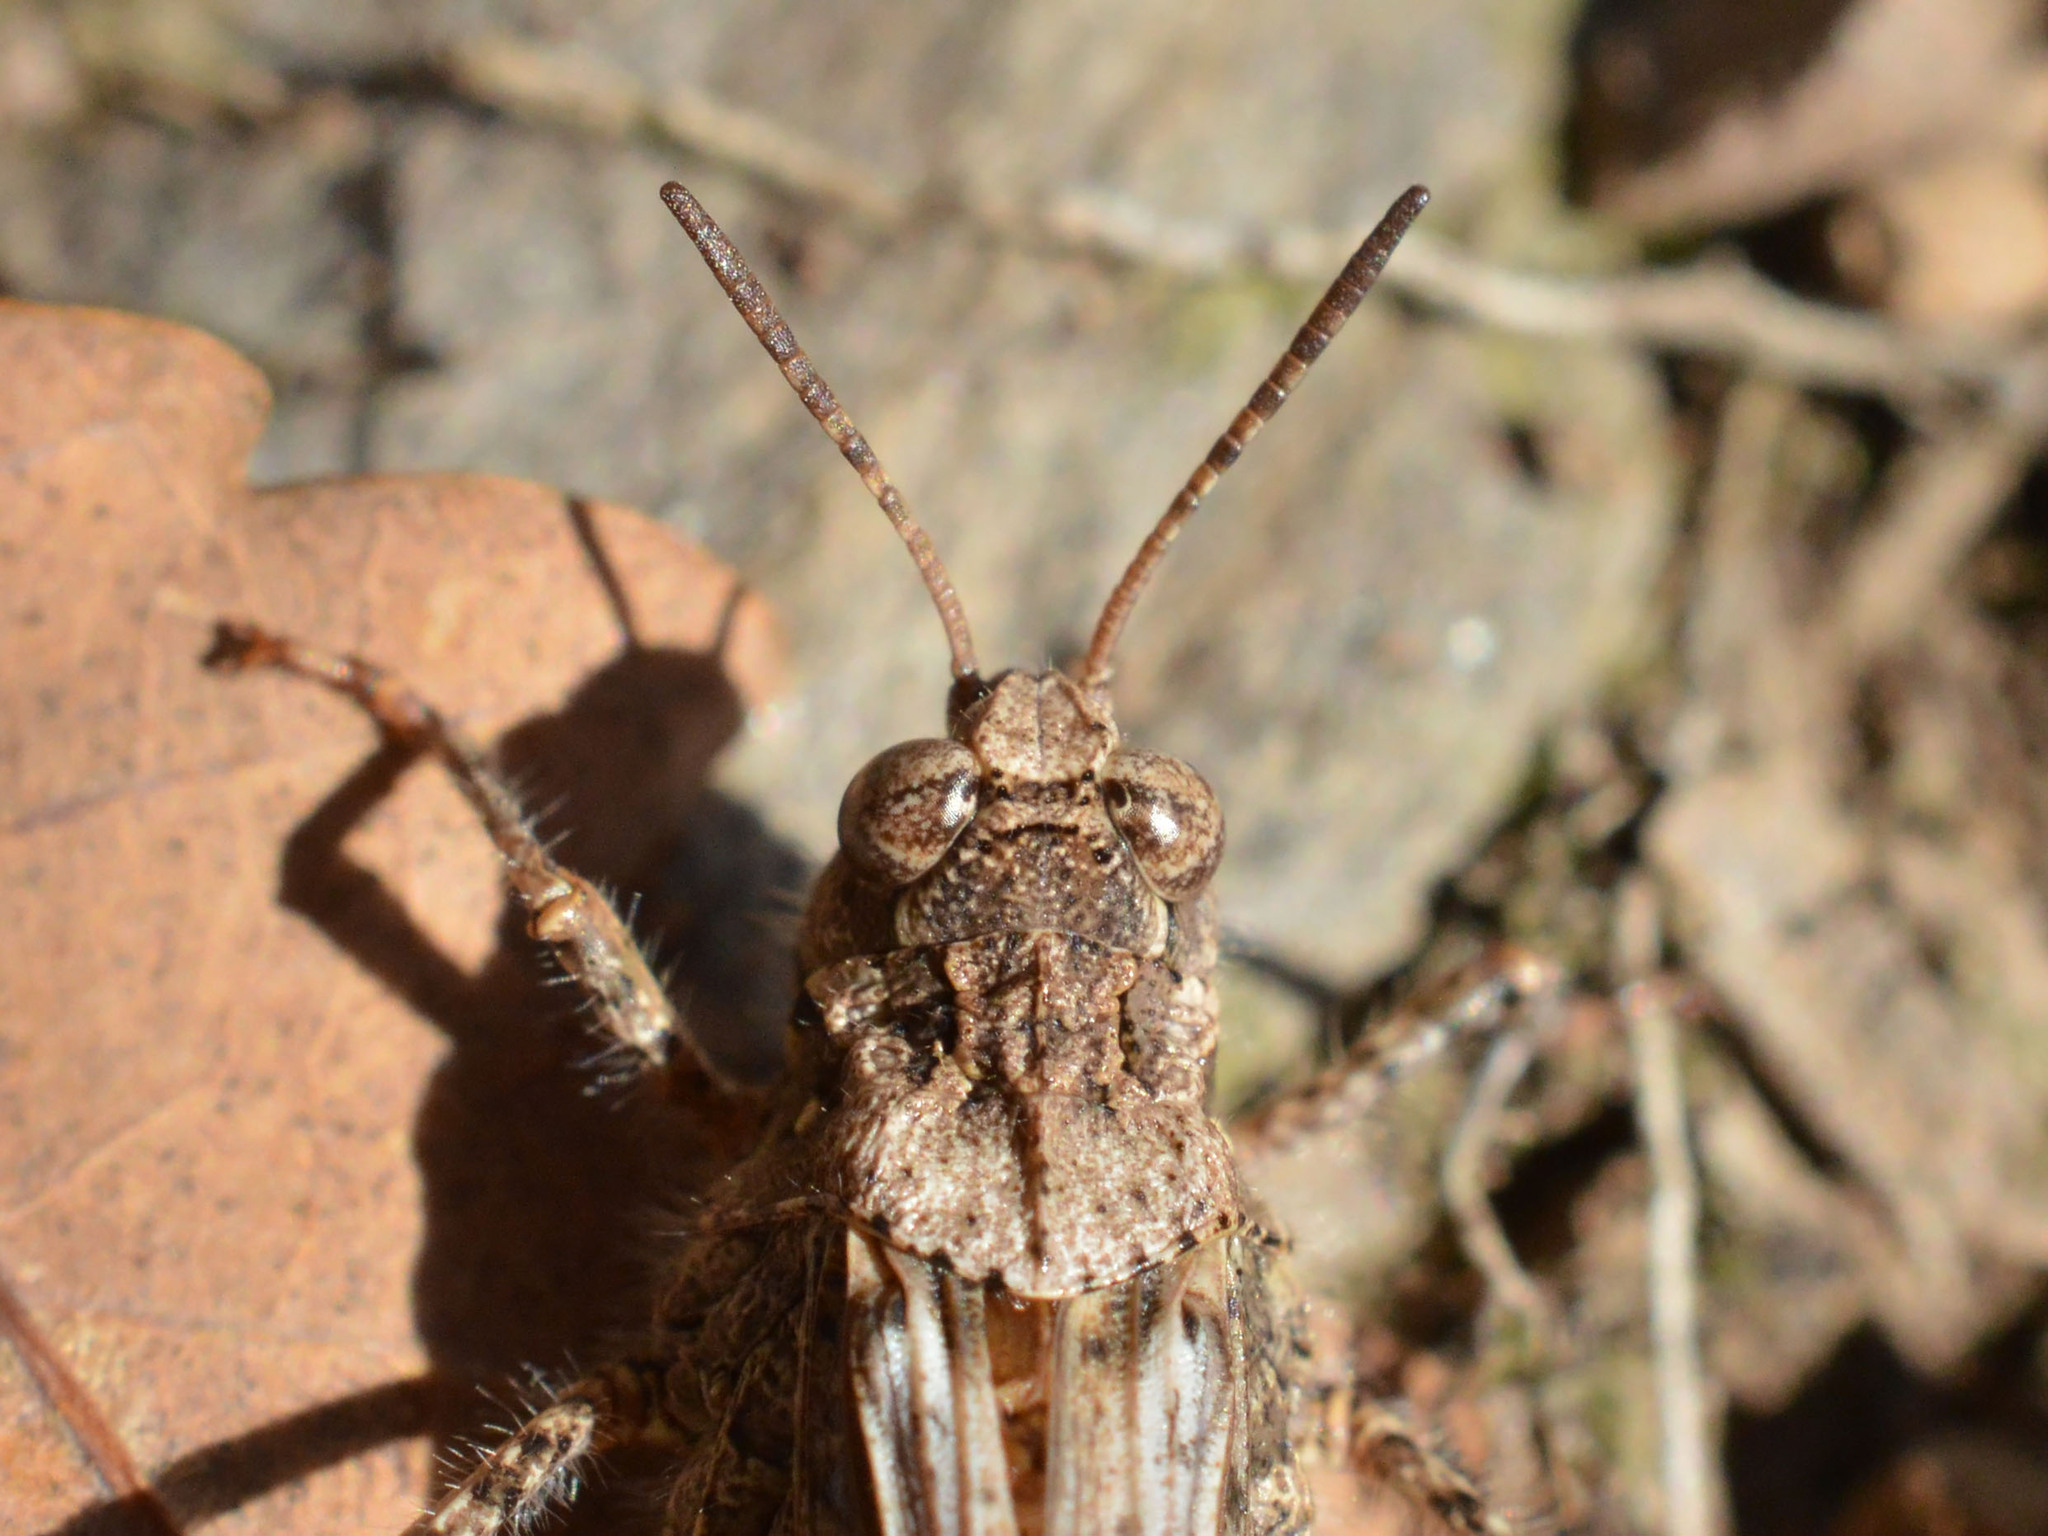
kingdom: Animalia
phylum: Arthropoda
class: Insecta
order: Orthoptera
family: Acrididae
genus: Acrotylus
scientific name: Acrotylus insubricus
